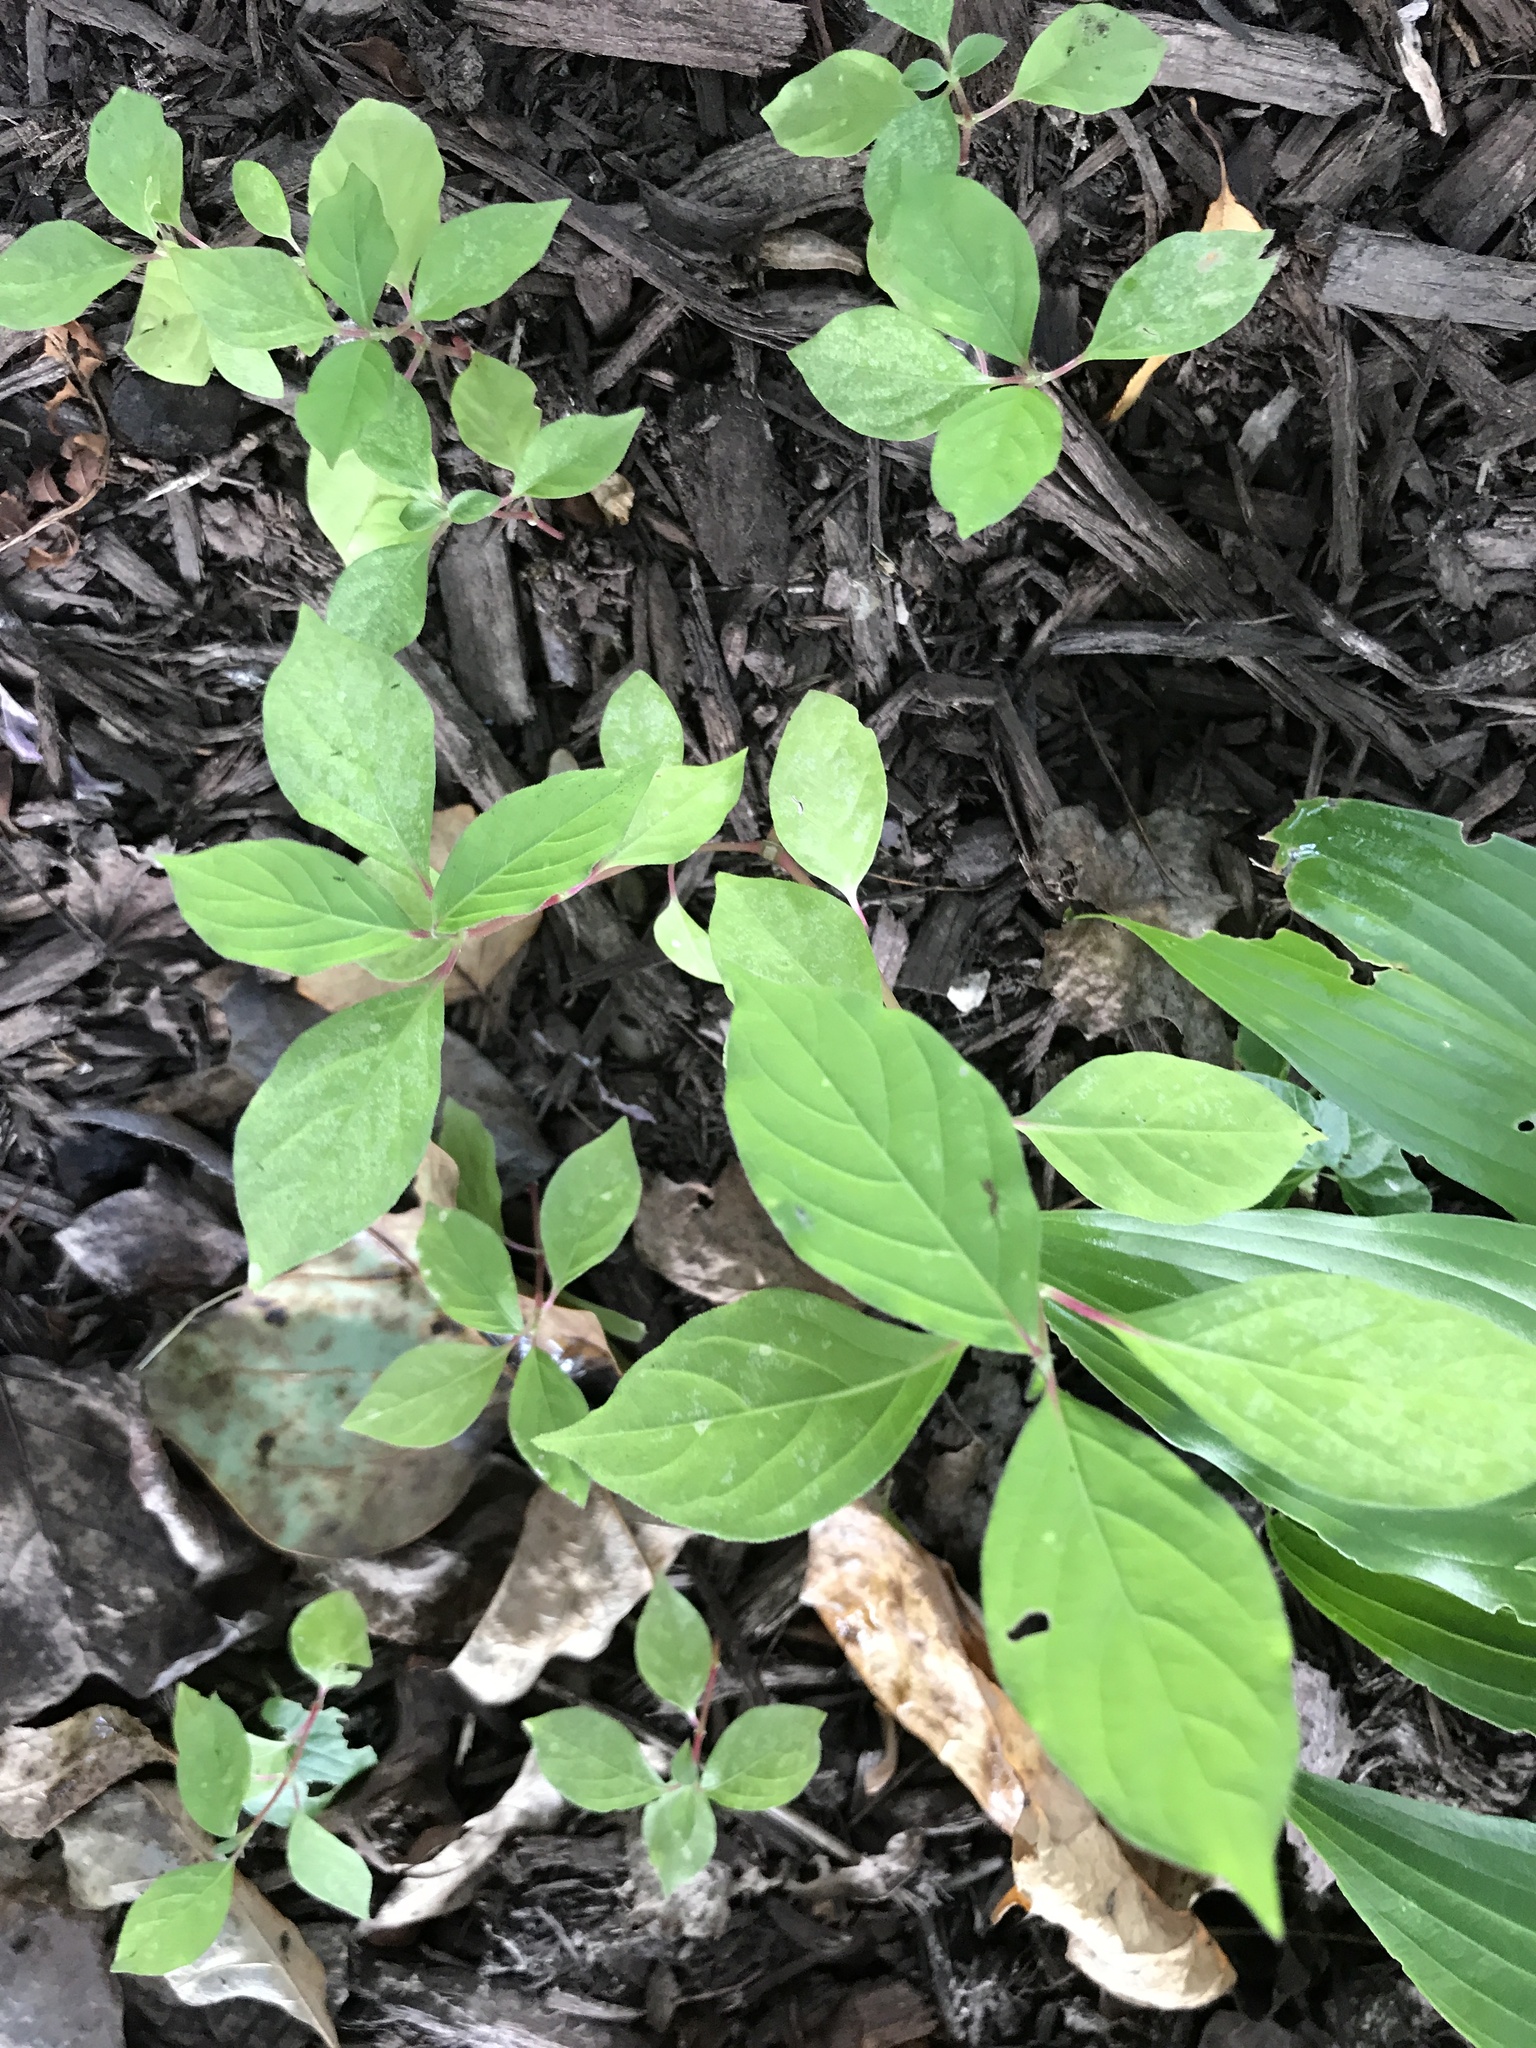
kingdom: Plantae
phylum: Tracheophyta
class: Magnoliopsida
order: Caryophyllales
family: Amaranthaceae
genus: Achyranthes
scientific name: Achyranthes bidentata
